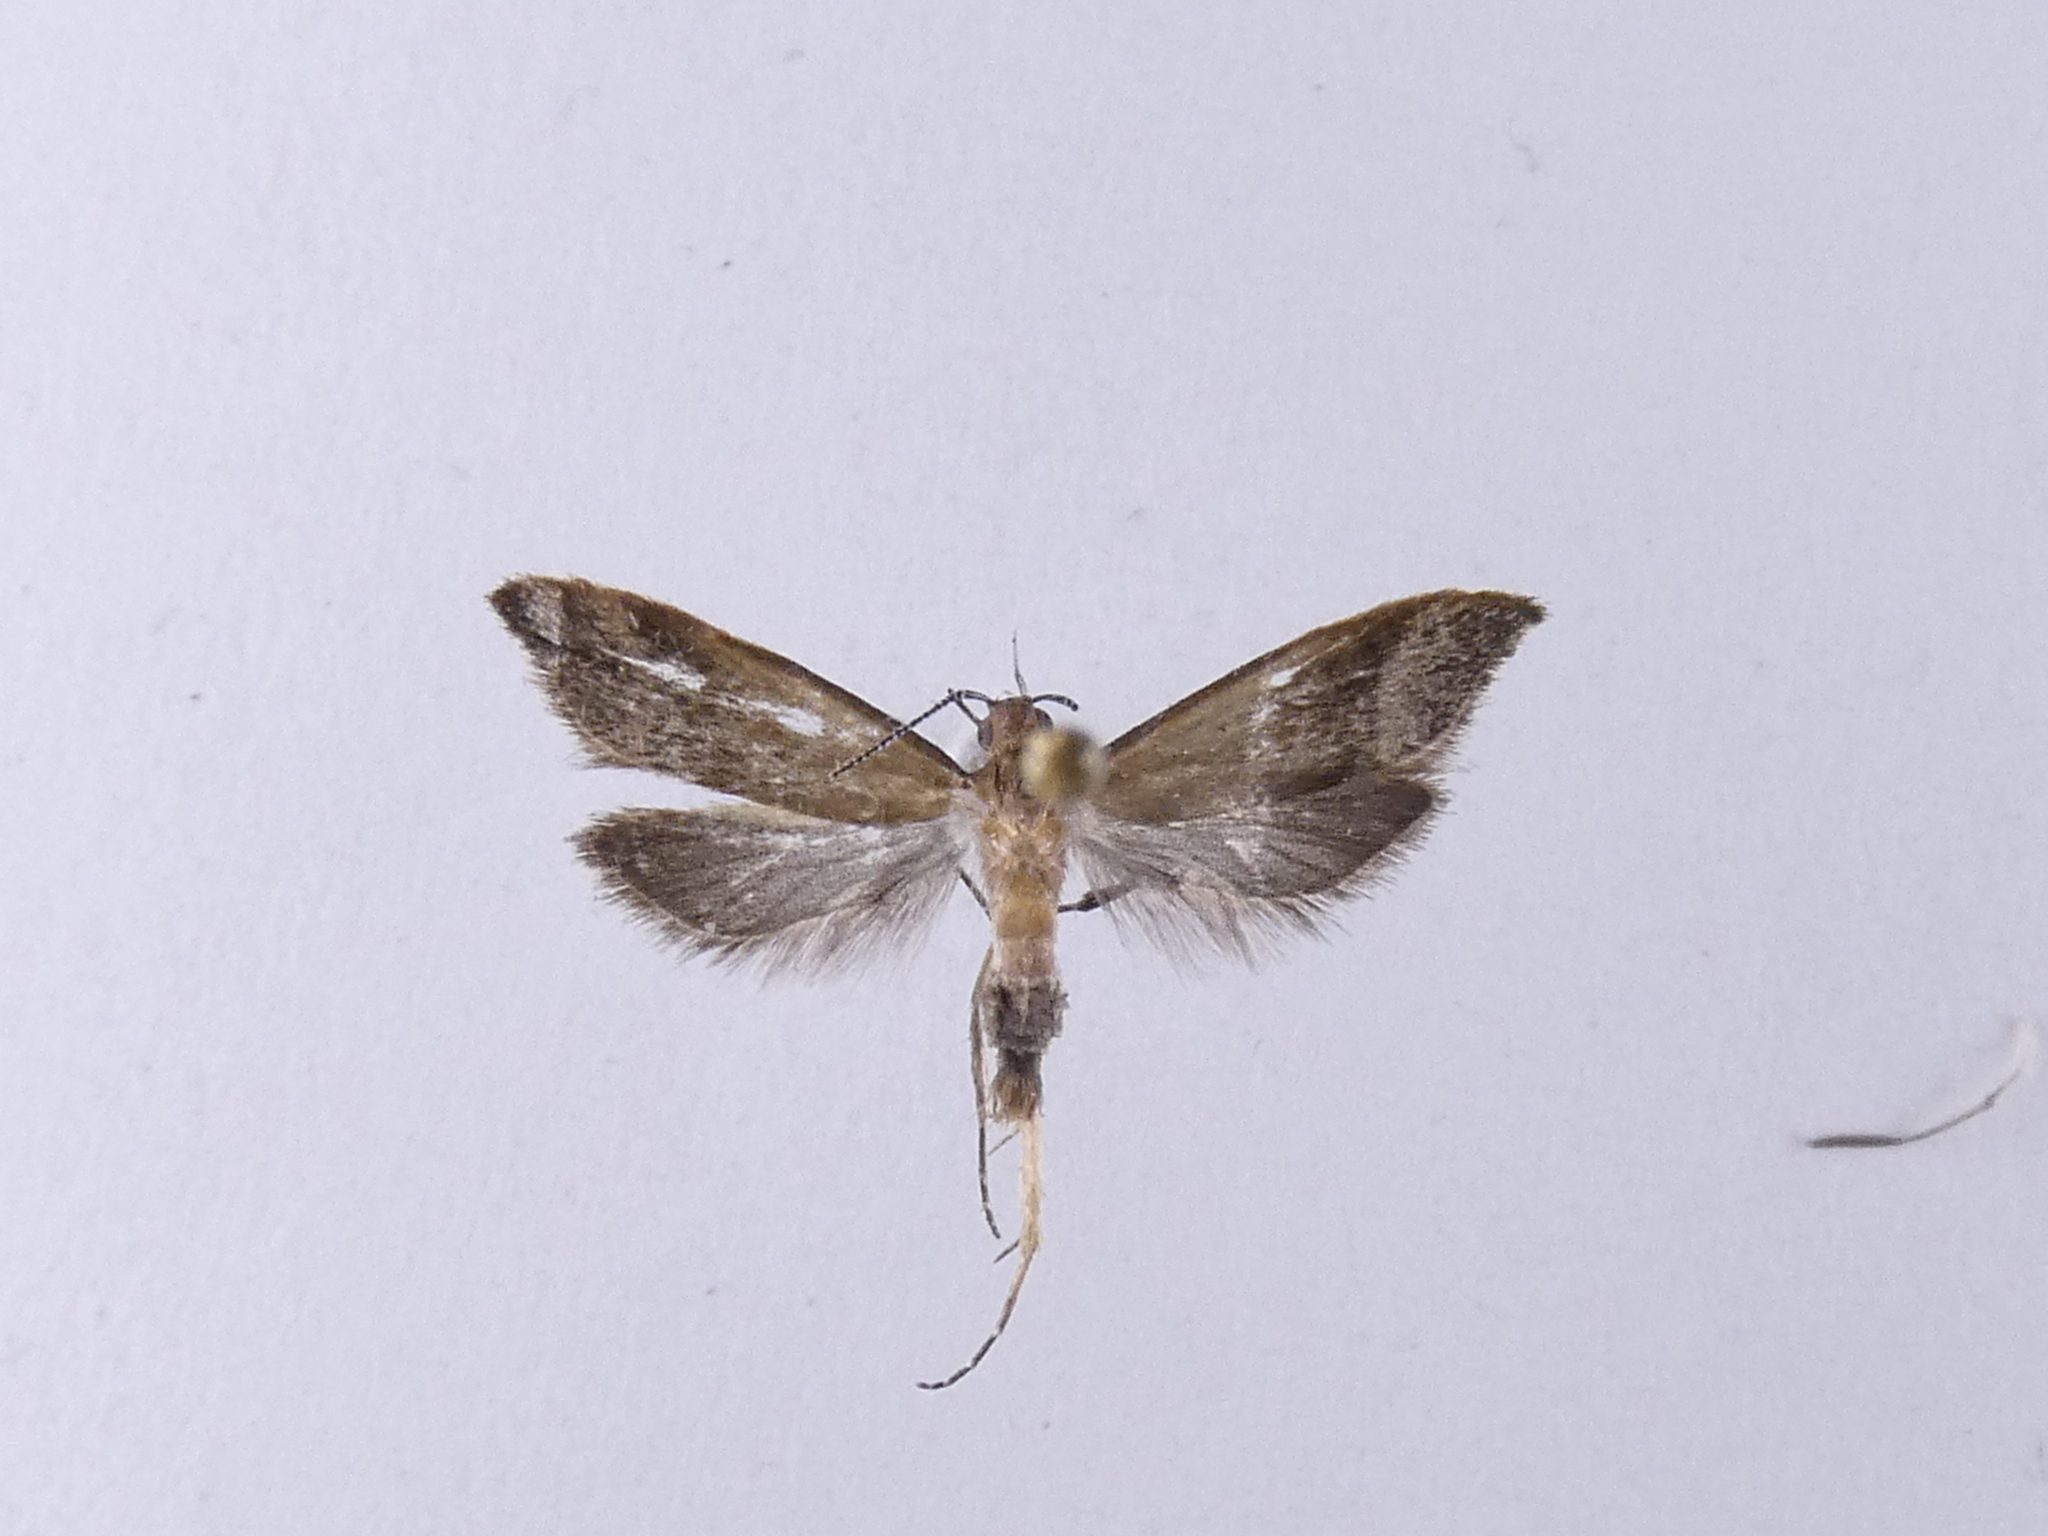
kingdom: Animalia
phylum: Arthropoda
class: Insecta
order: Lepidoptera
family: Oecophoridae
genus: Gymnobathra
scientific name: Gymnobathra hyetodes
